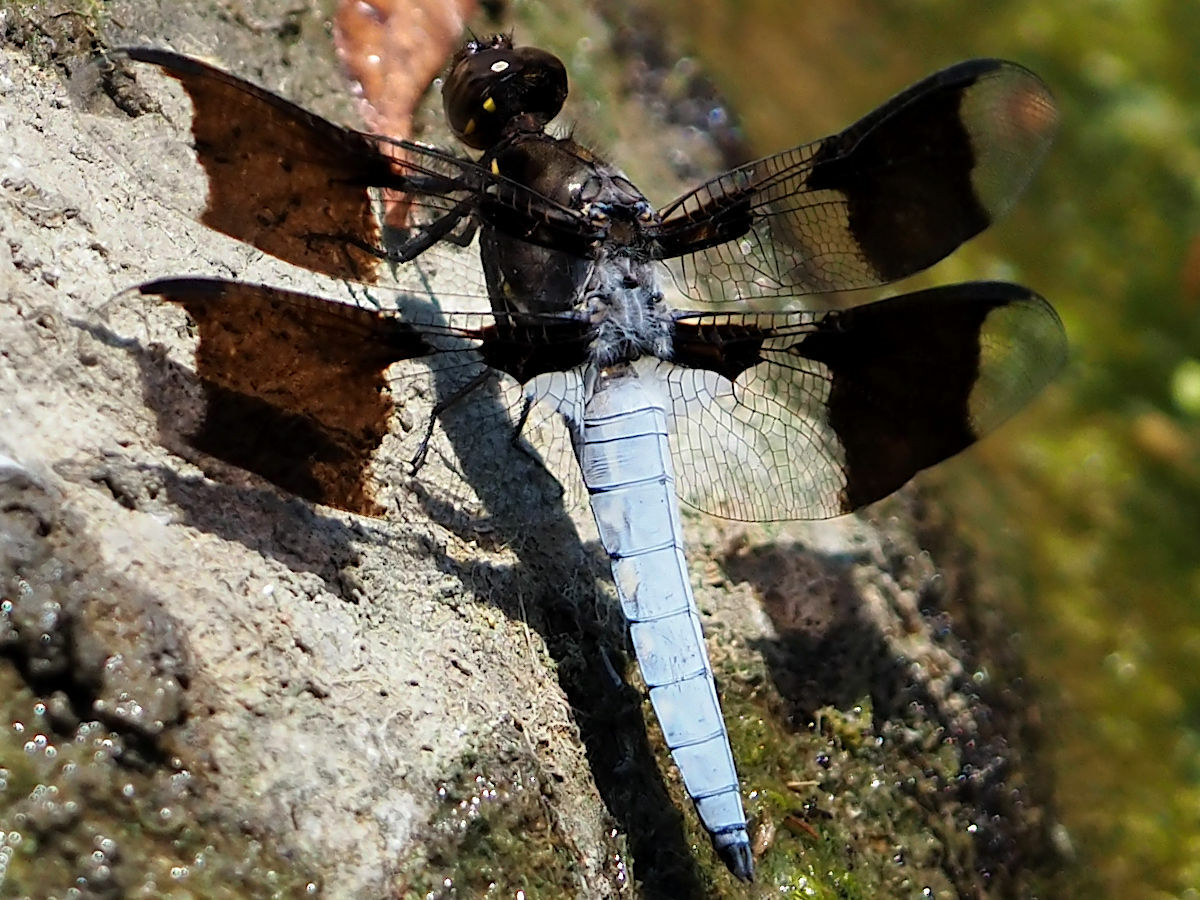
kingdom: Animalia
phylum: Arthropoda
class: Insecta
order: Odonata
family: Libellulidae
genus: Plathemis
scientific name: Plathemis lydia
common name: Common whitetail
